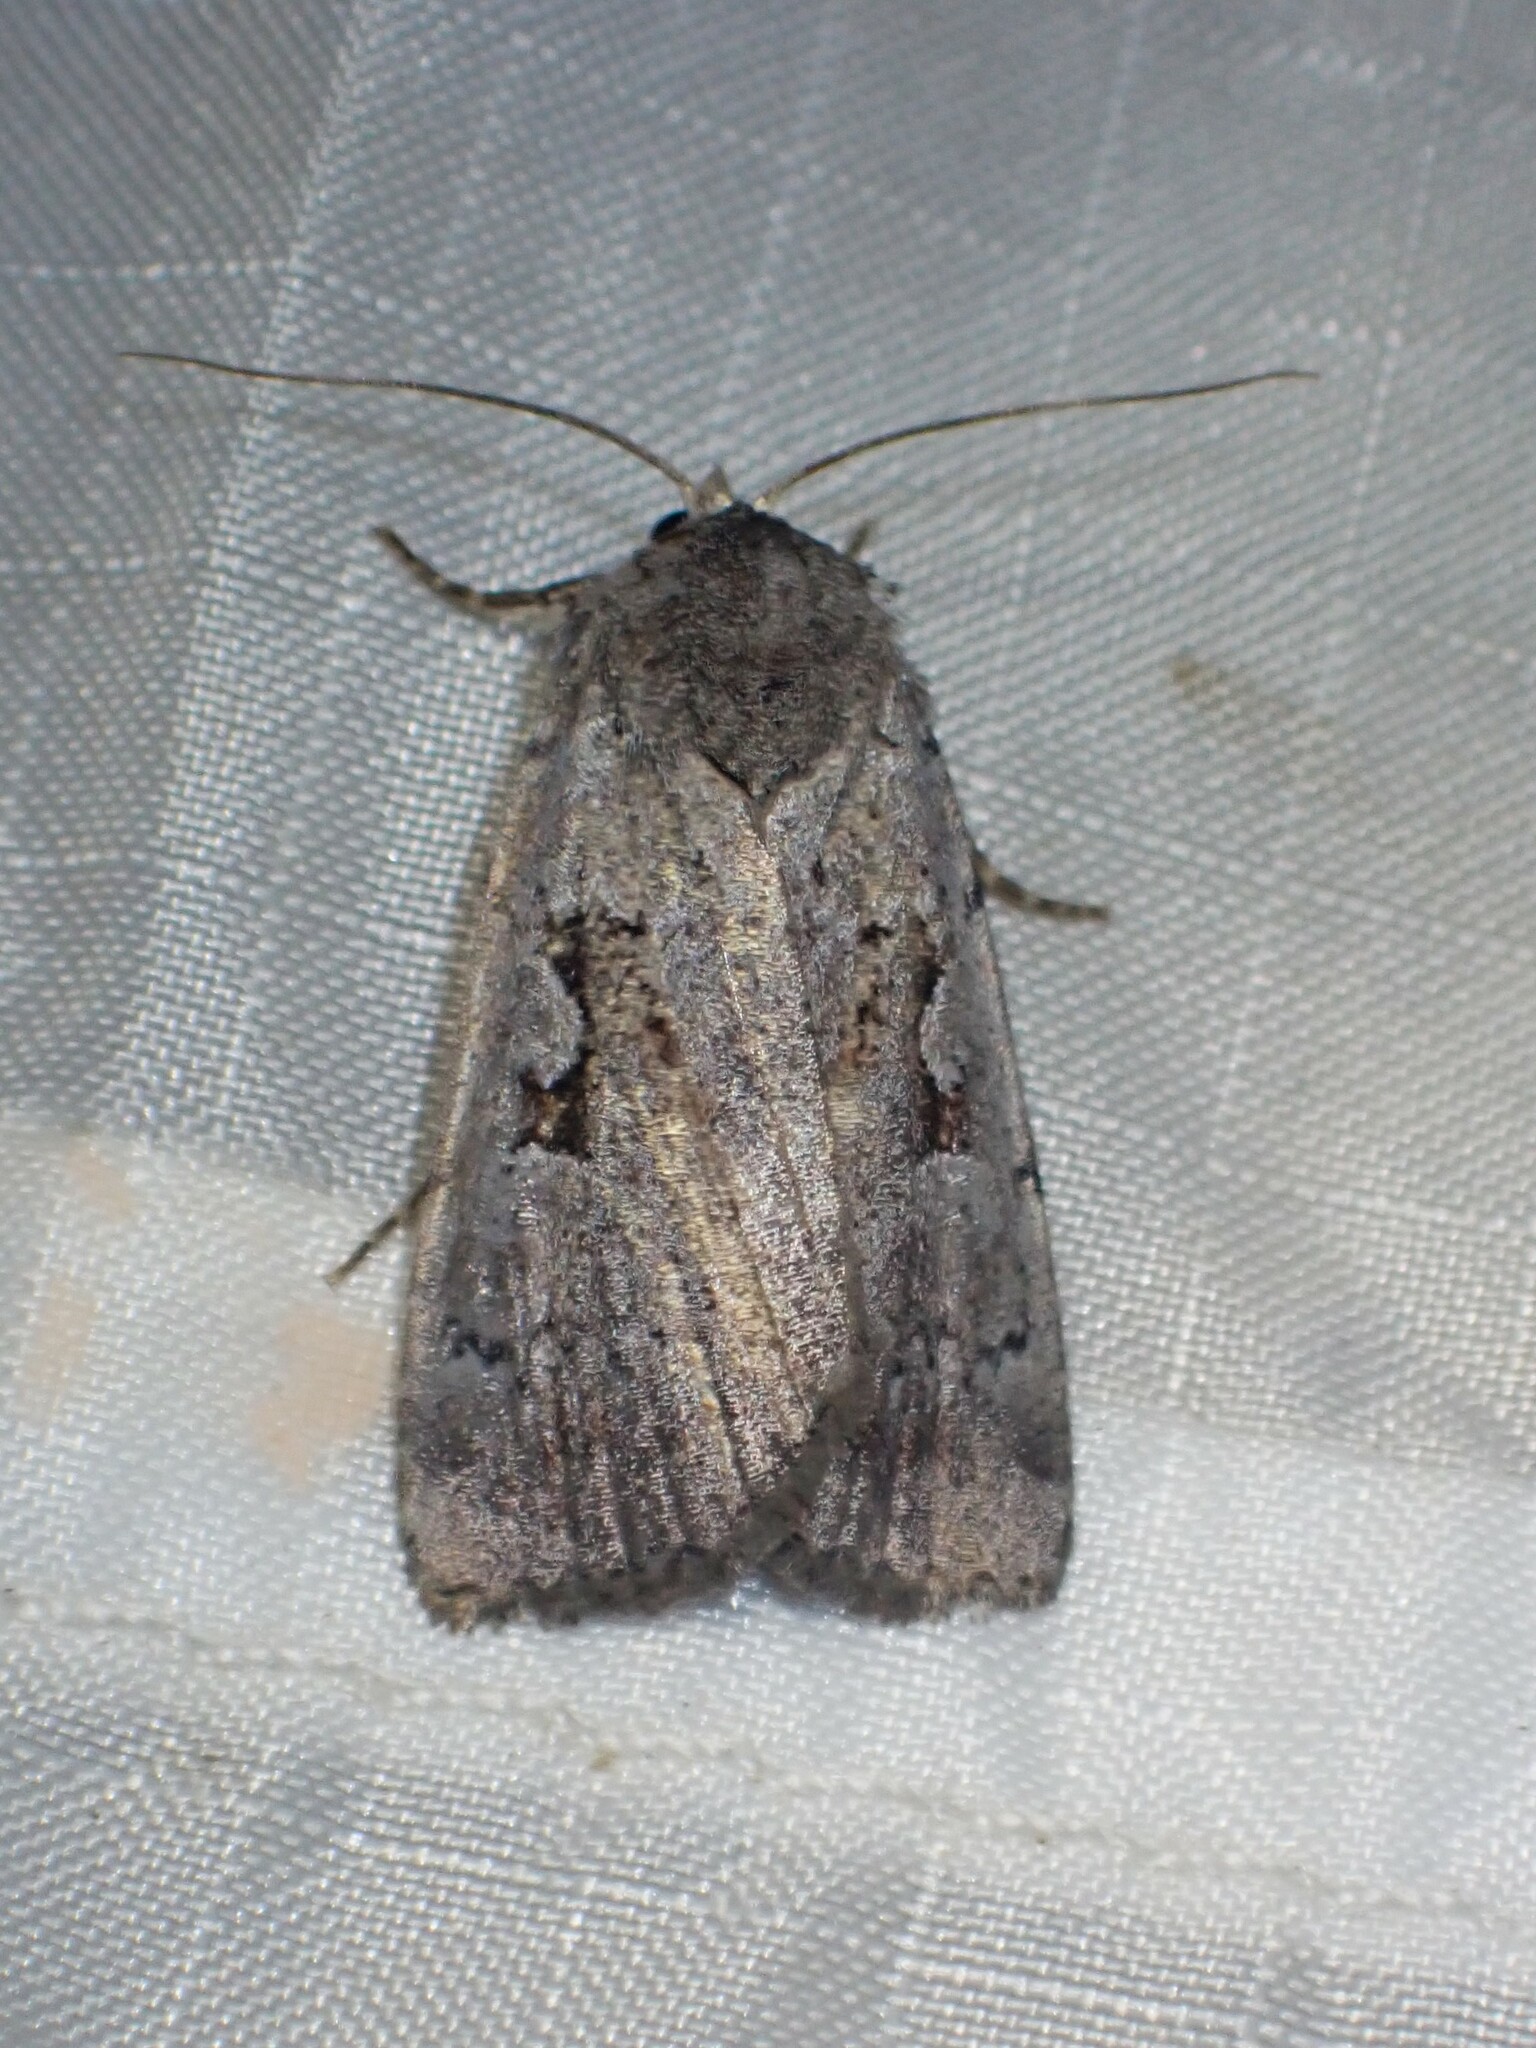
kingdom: Animalia
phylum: Arthropoda
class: Insecta
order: Lepidoptera
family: Noctuidae
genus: Coenophila
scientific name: Coenophila opacifrons
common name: Blueberry dart
